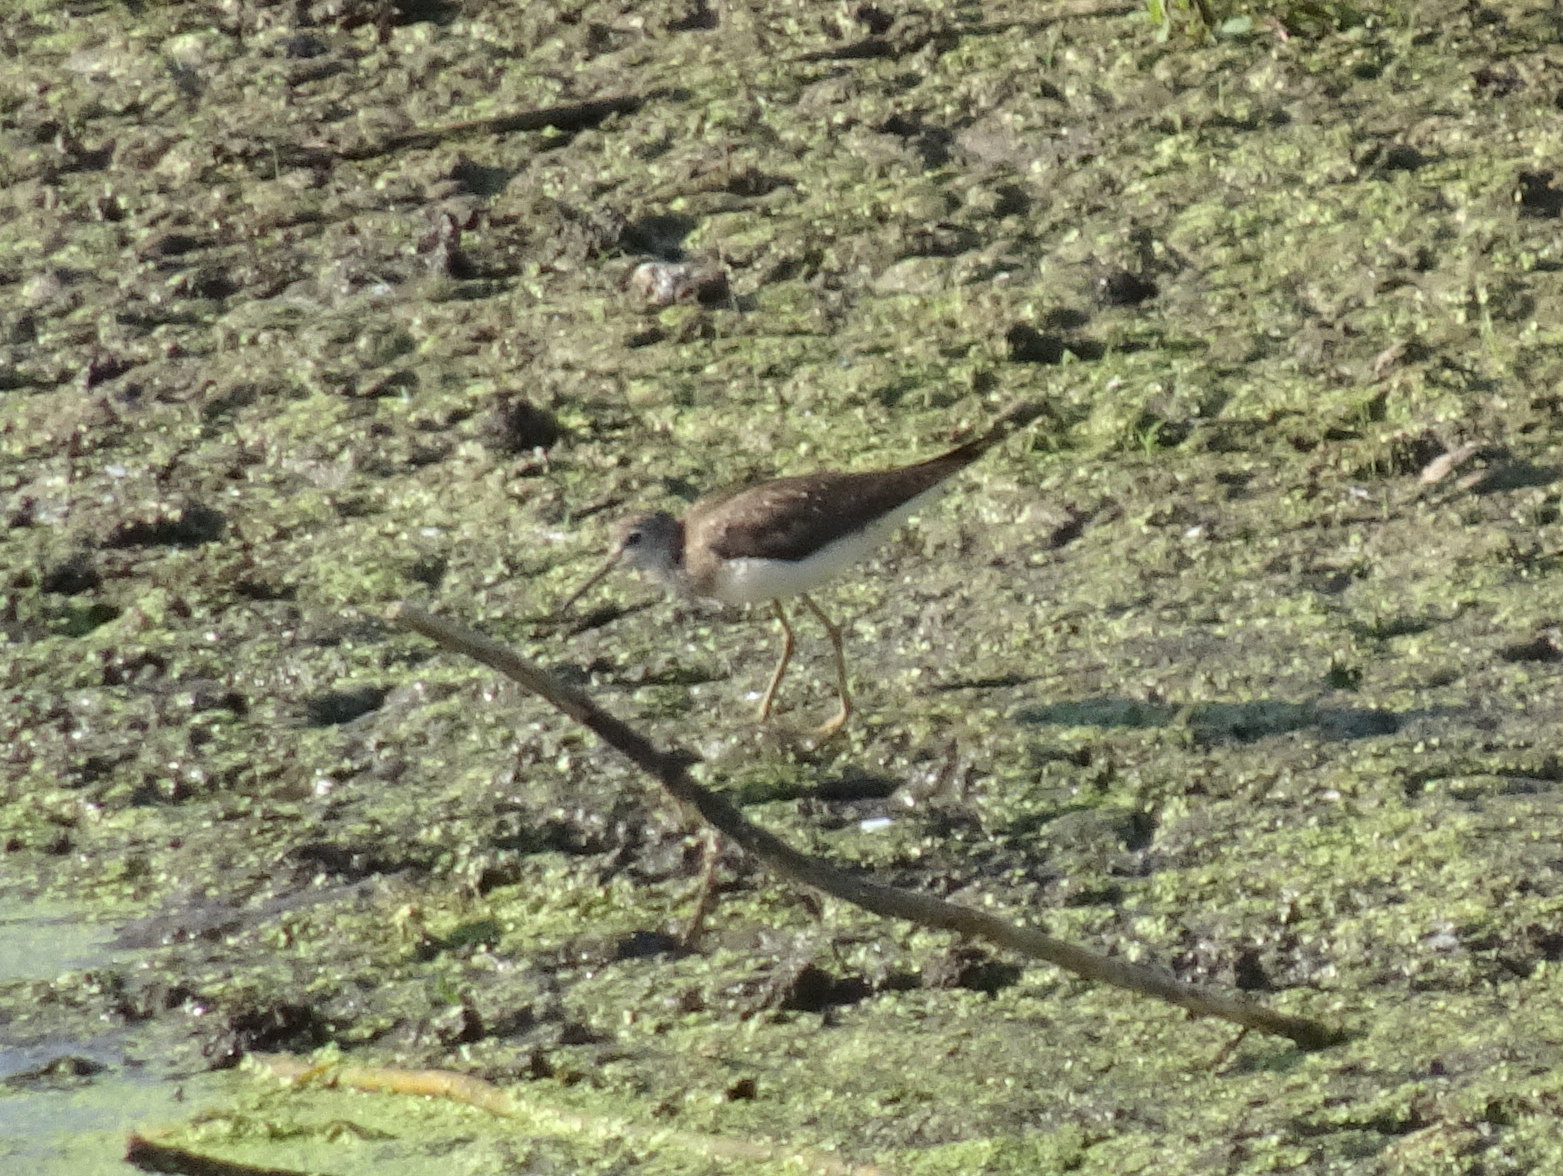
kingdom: Animalia
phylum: Chordata
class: Aves
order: Charadriiformes
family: Scolopacidae
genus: Tringa
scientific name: Tringa solitaria
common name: Solitary sandpiper
